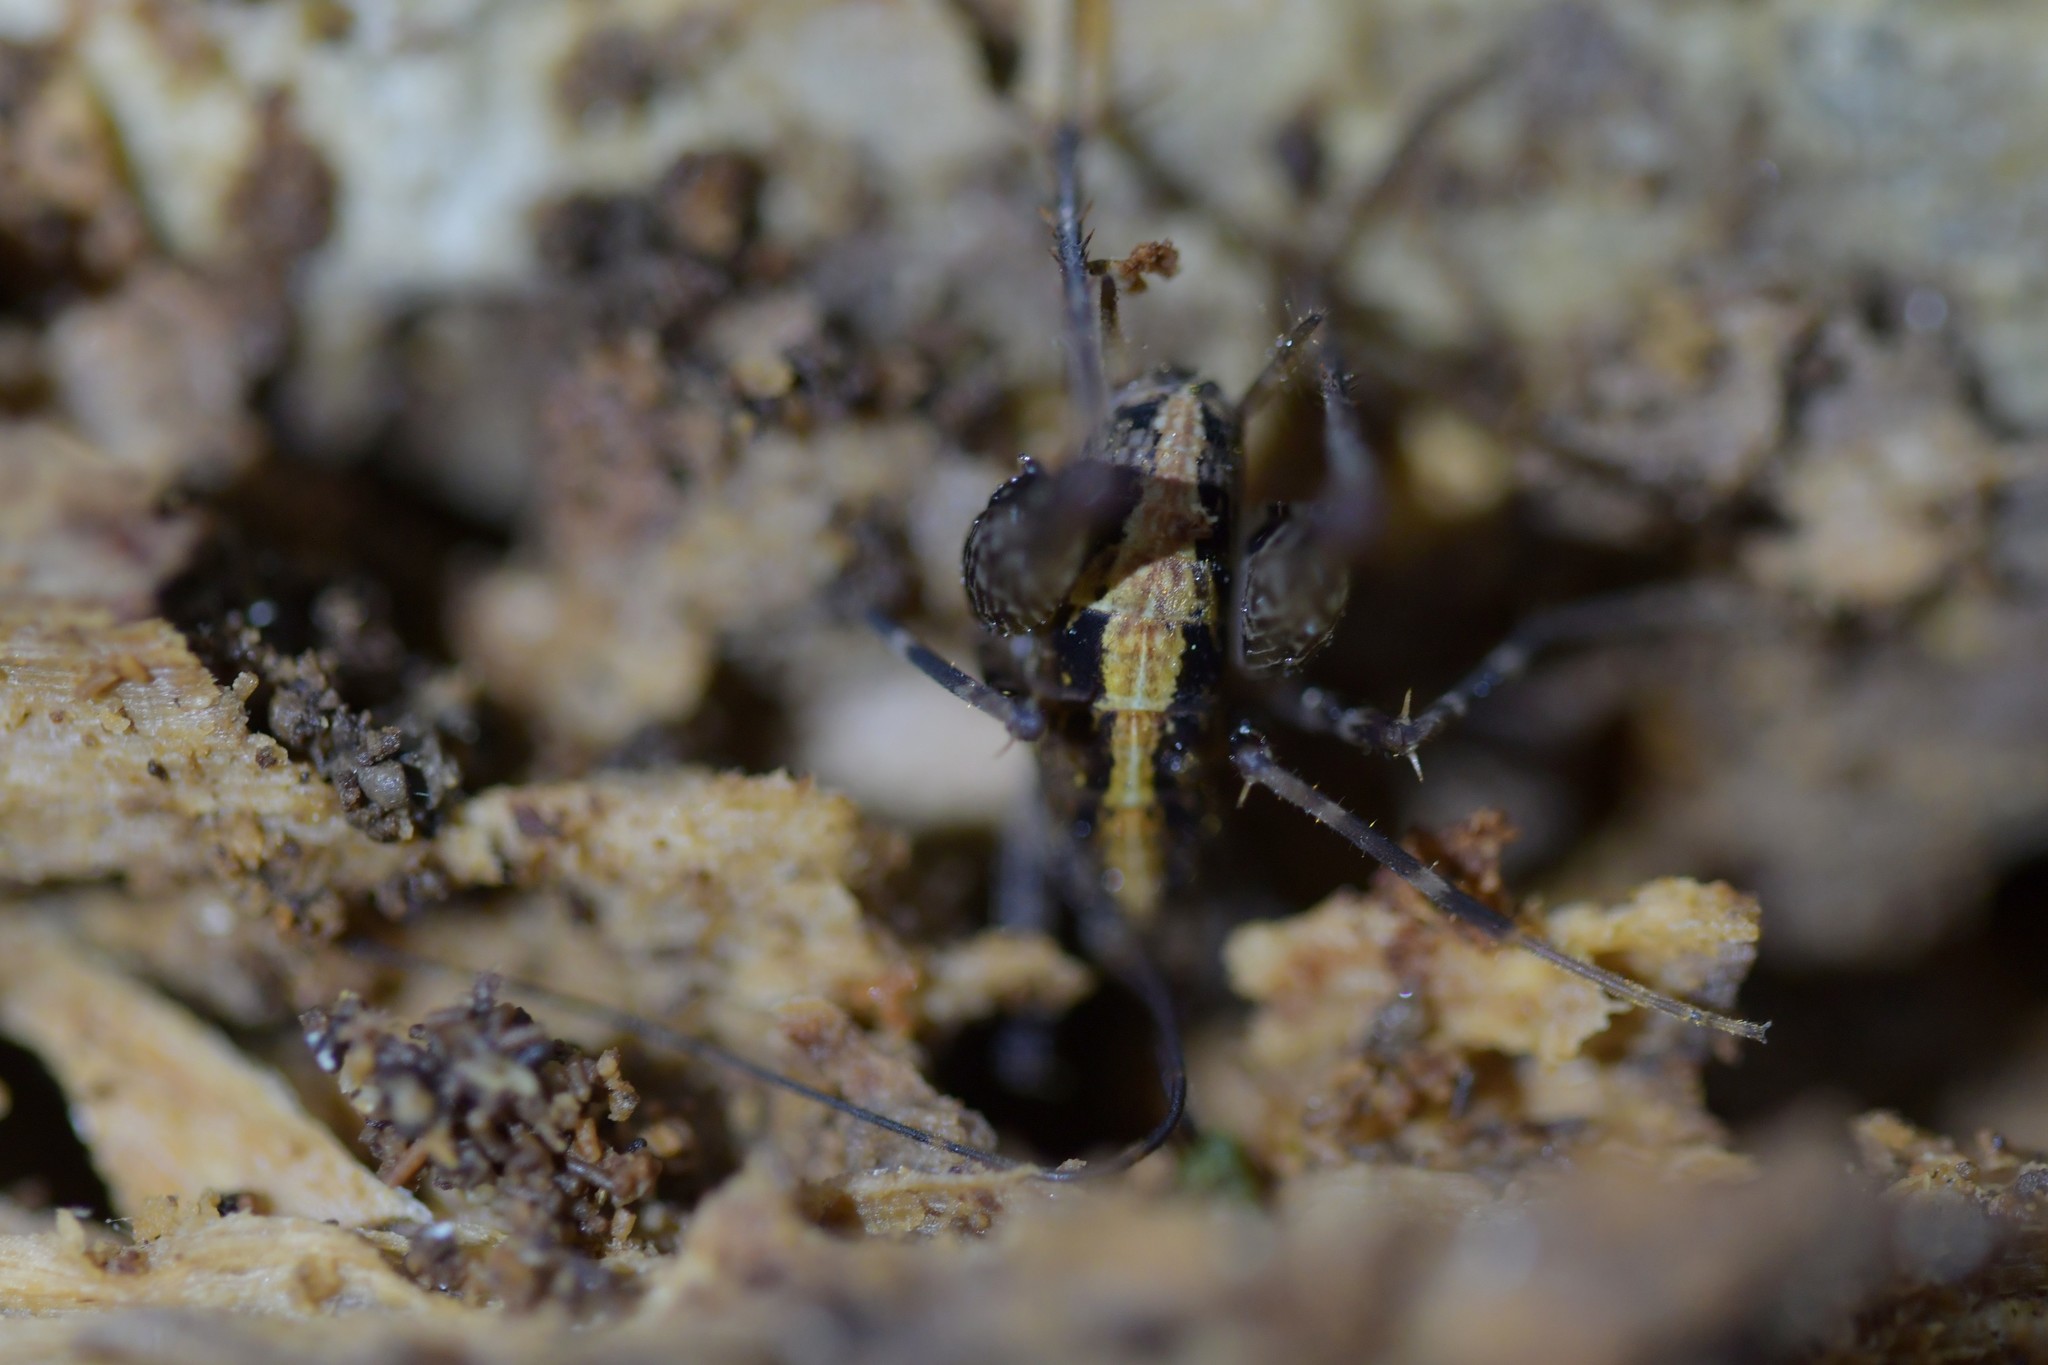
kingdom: Animalia
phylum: Arthropoda
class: Insecta
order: Orthoptera
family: Rhaphidophoridae
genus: Pleioplectron
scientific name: Pleioplectron hudsoni
